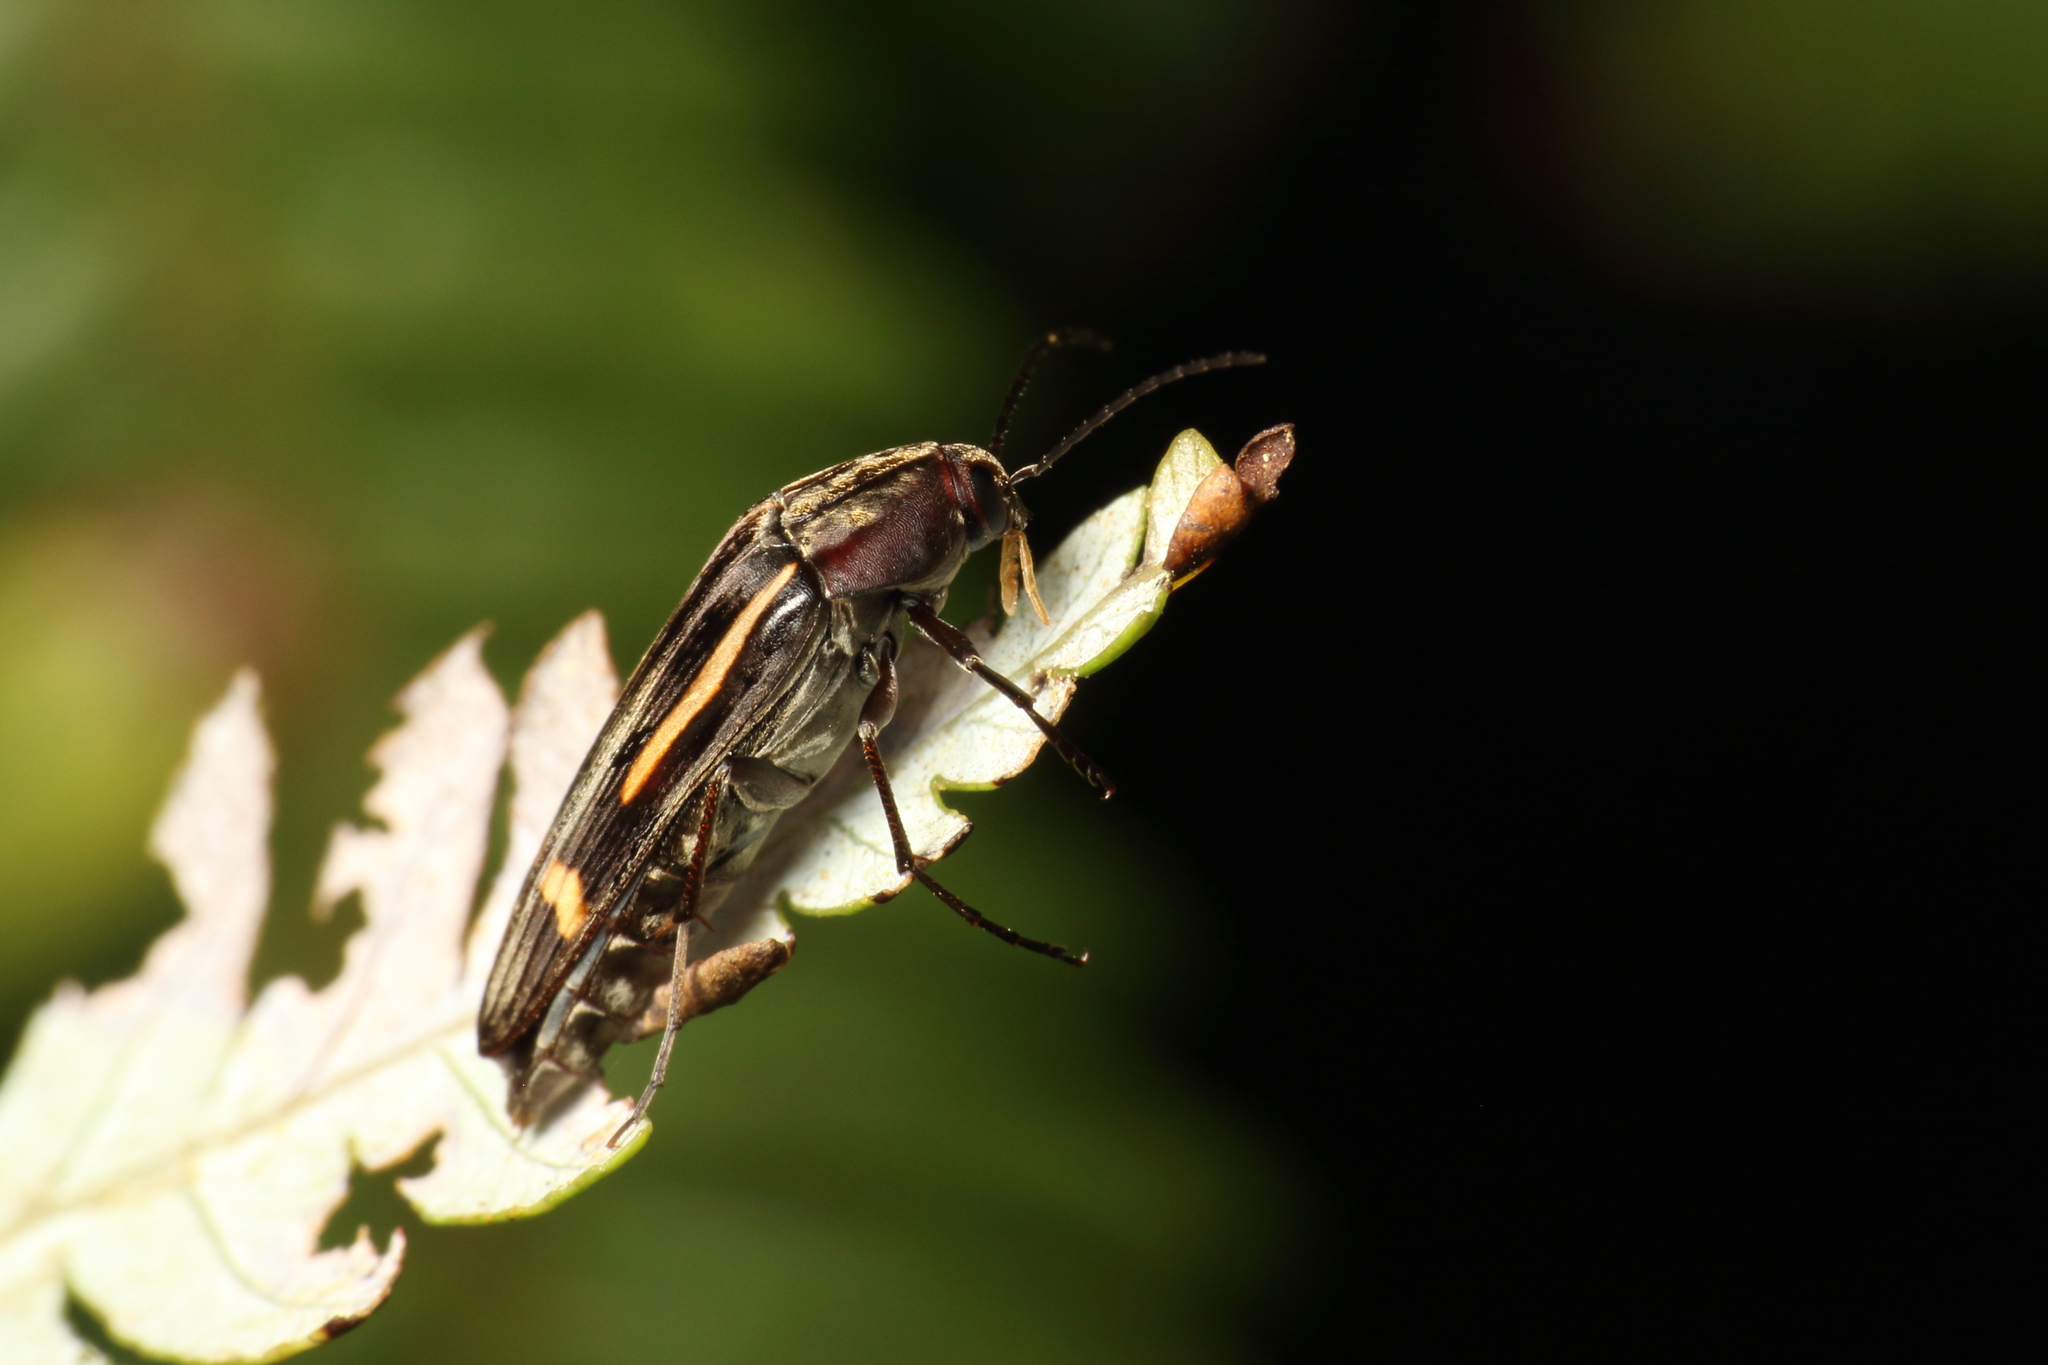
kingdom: Animalia
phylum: Arthropoda
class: Insecta
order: Coleoptera
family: Melandryidae
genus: Ctenoplectron
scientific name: Ctenoplectron
